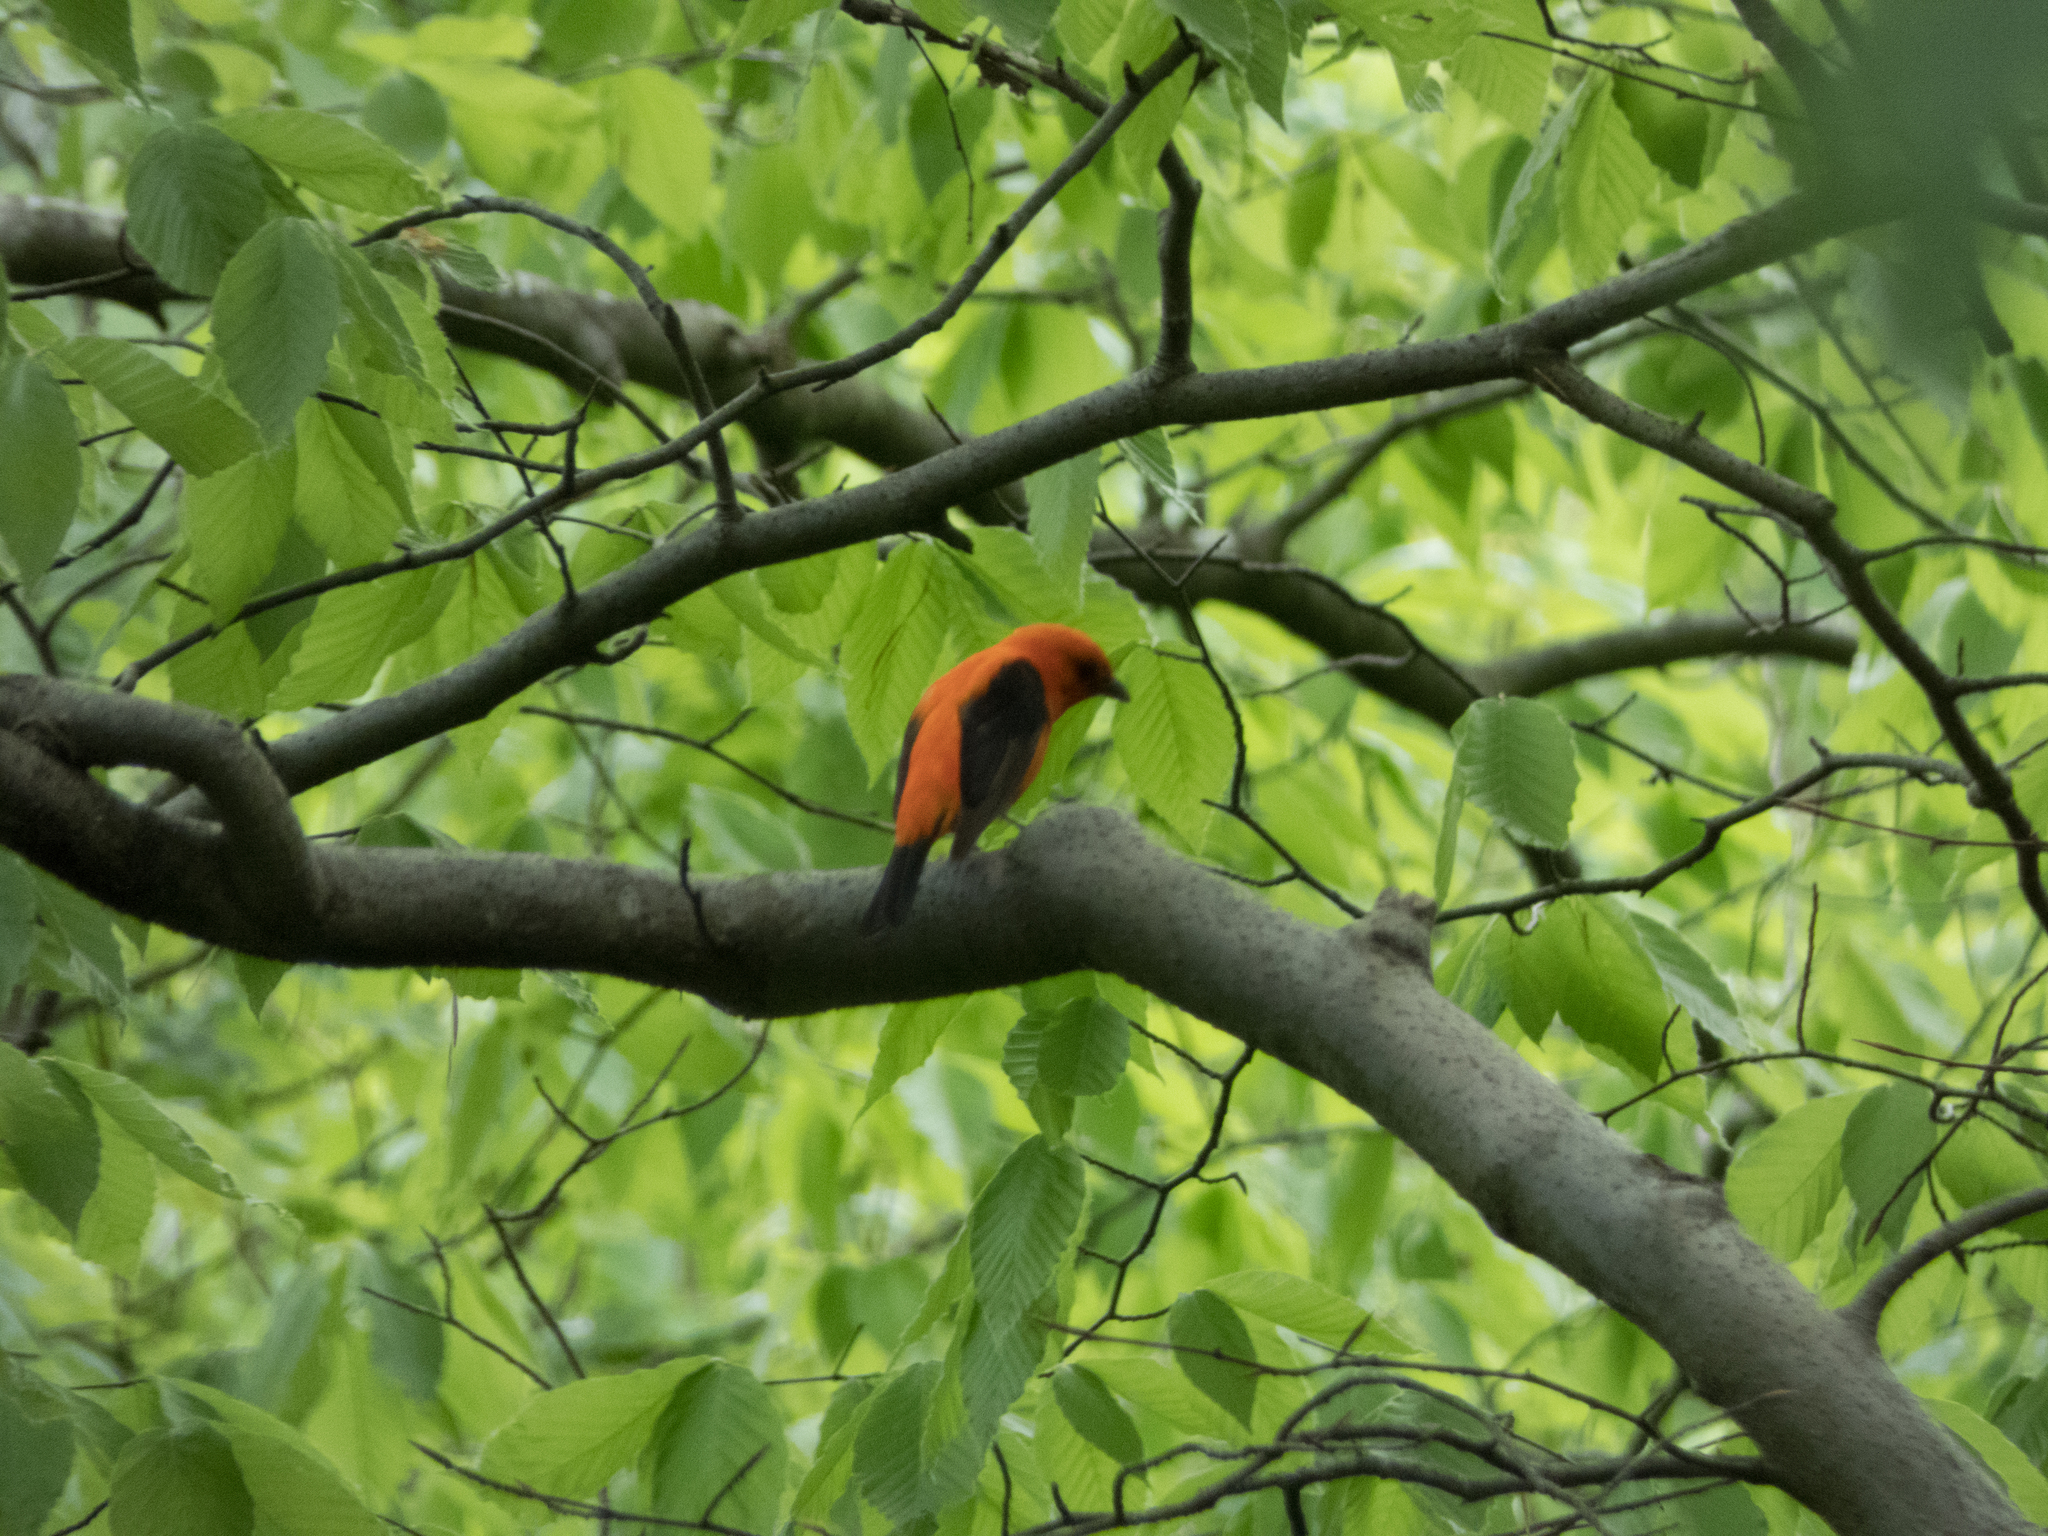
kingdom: Animalia
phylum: Chordata
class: Aves
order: Passeriformes
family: Cardinalidae
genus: Piranga
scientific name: Piranga olivacea
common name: Scarlet tanager
